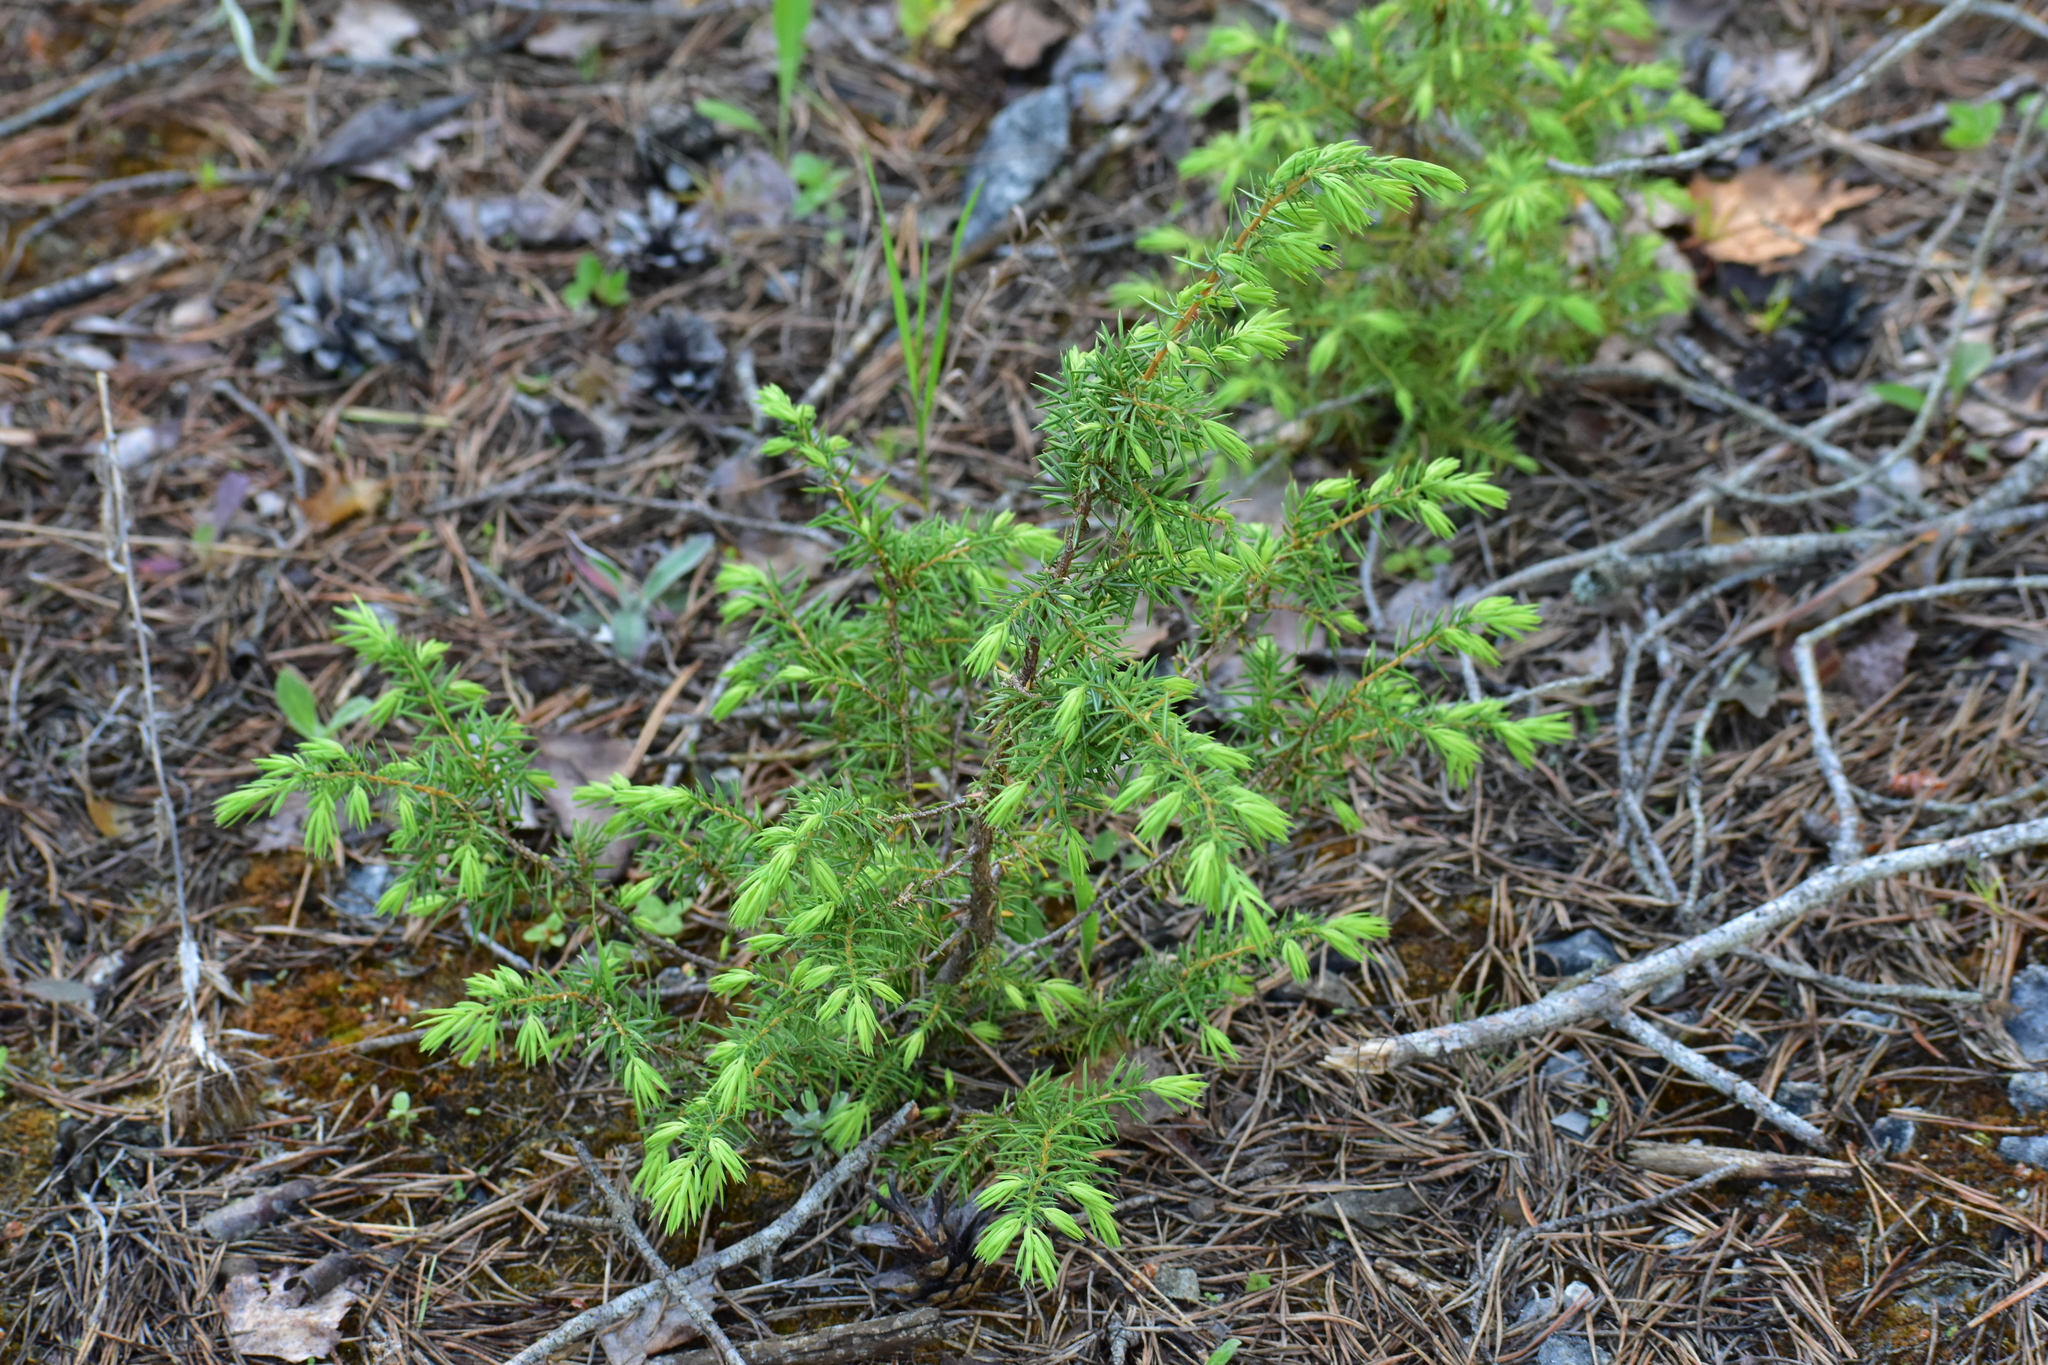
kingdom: Plantae
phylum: Tracheophyta
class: Pinopsida
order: Pinales
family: Cupressaceae
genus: Juniperus
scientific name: Juniperus communis
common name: Common juniper
